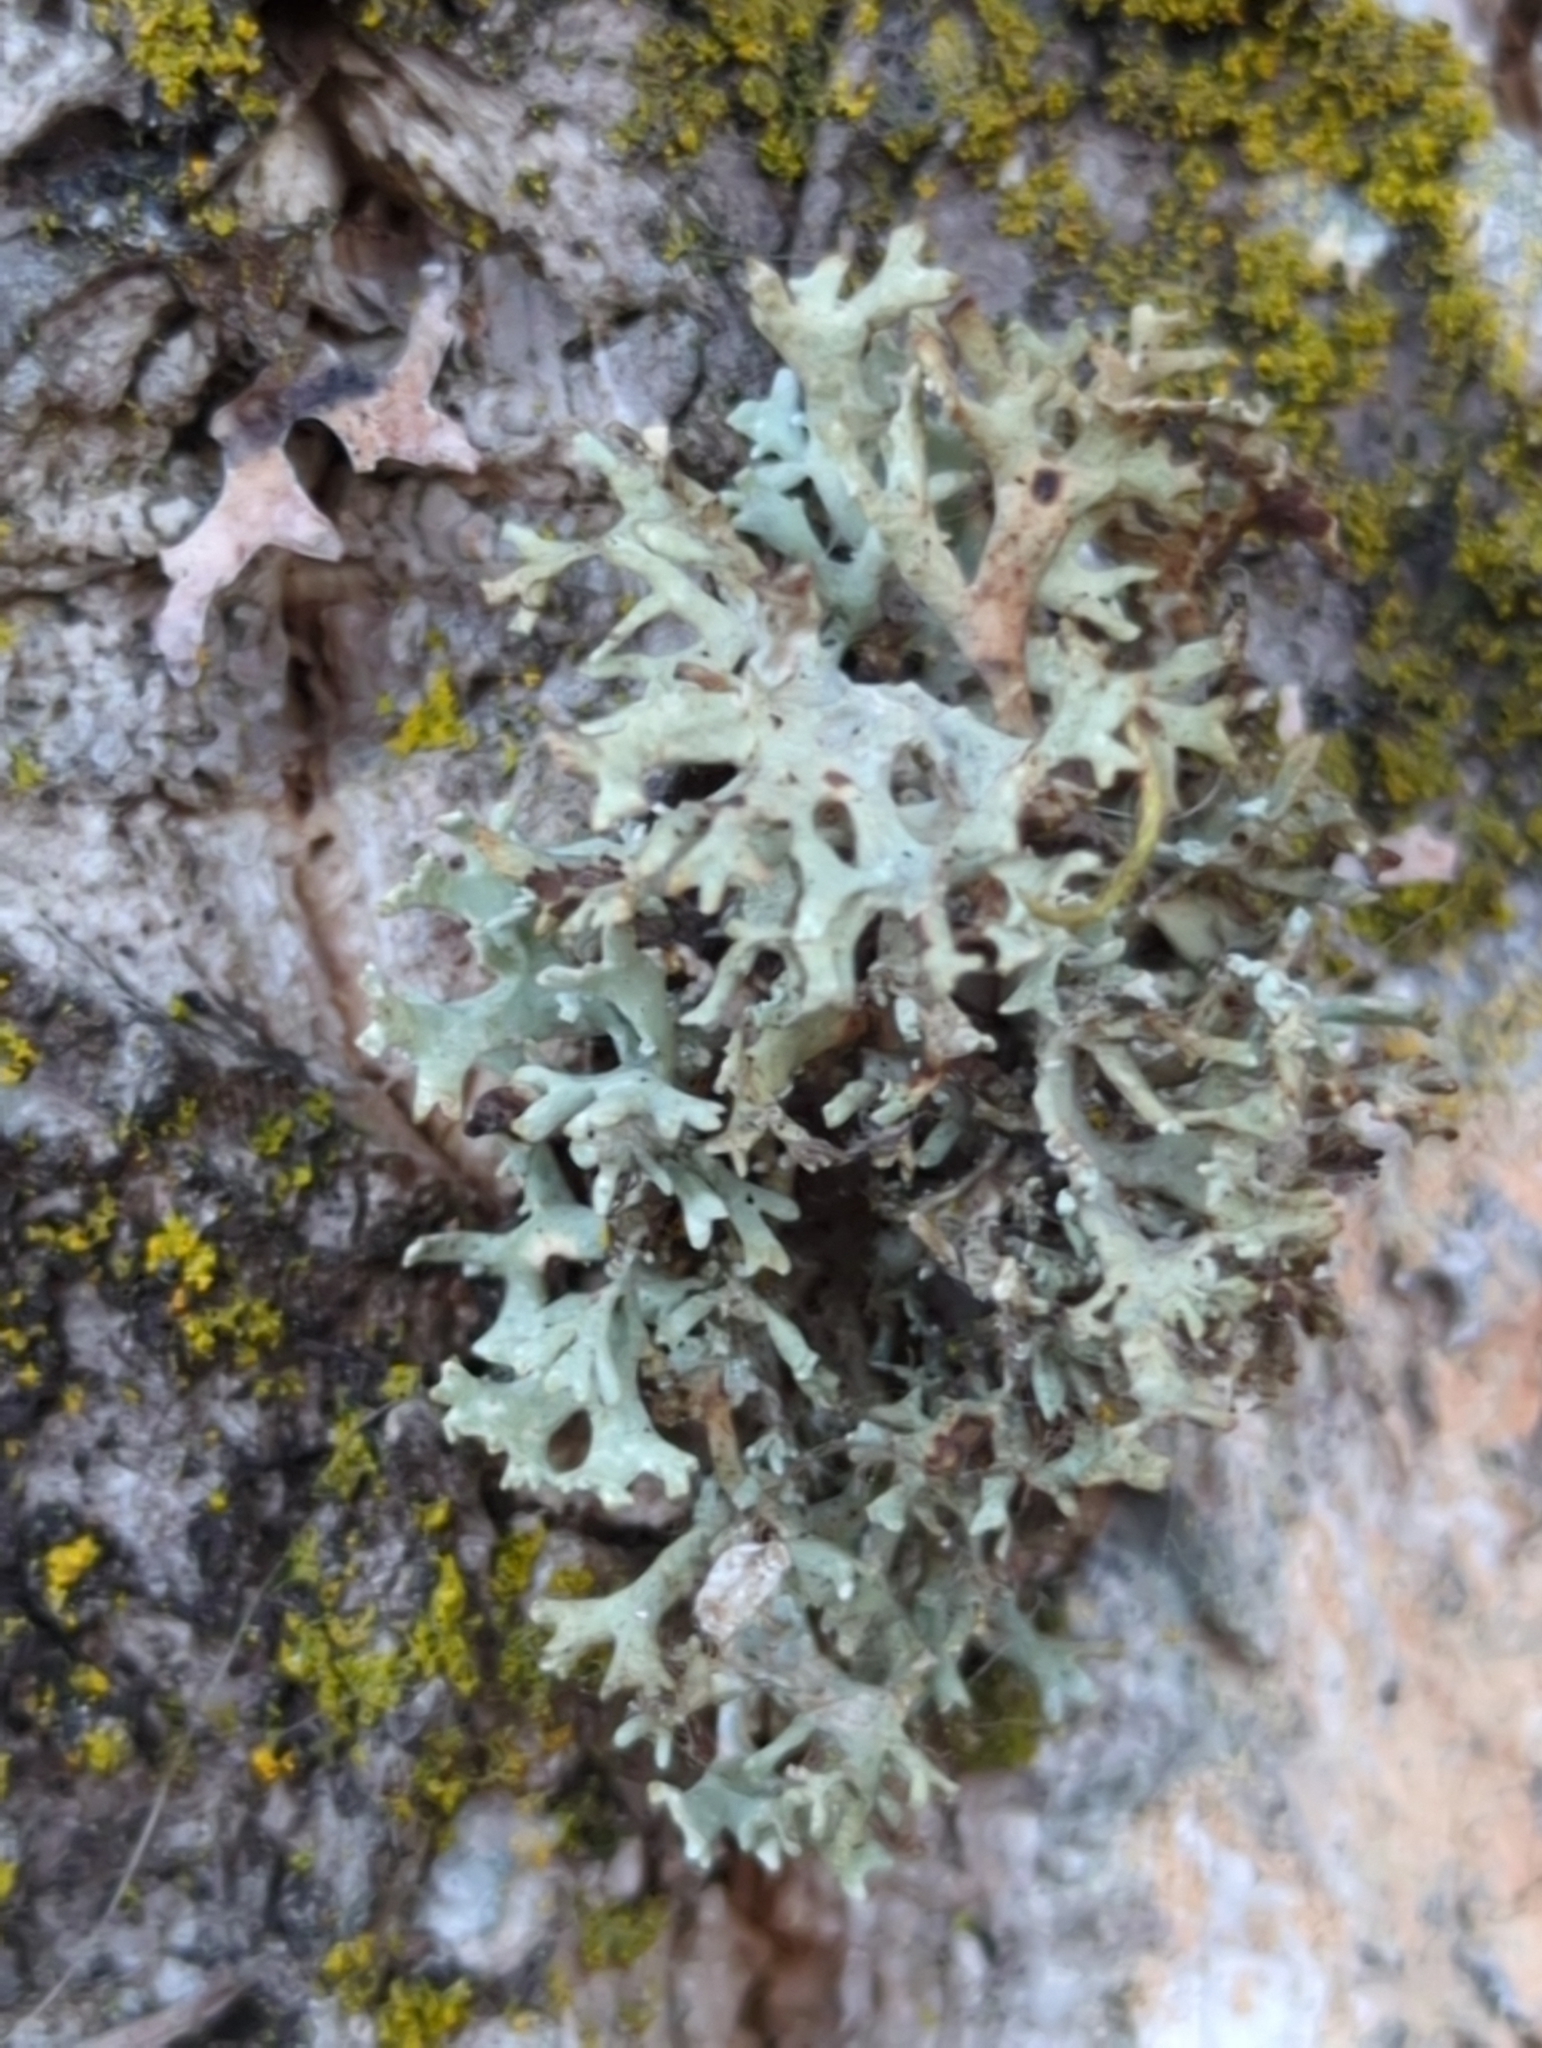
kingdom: Fungi
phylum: Ascomycota
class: Lecanoromycetes
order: Lecanorales
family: Parmeliaceae
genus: Evernia
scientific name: Evernia prunastri
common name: Oak moss
